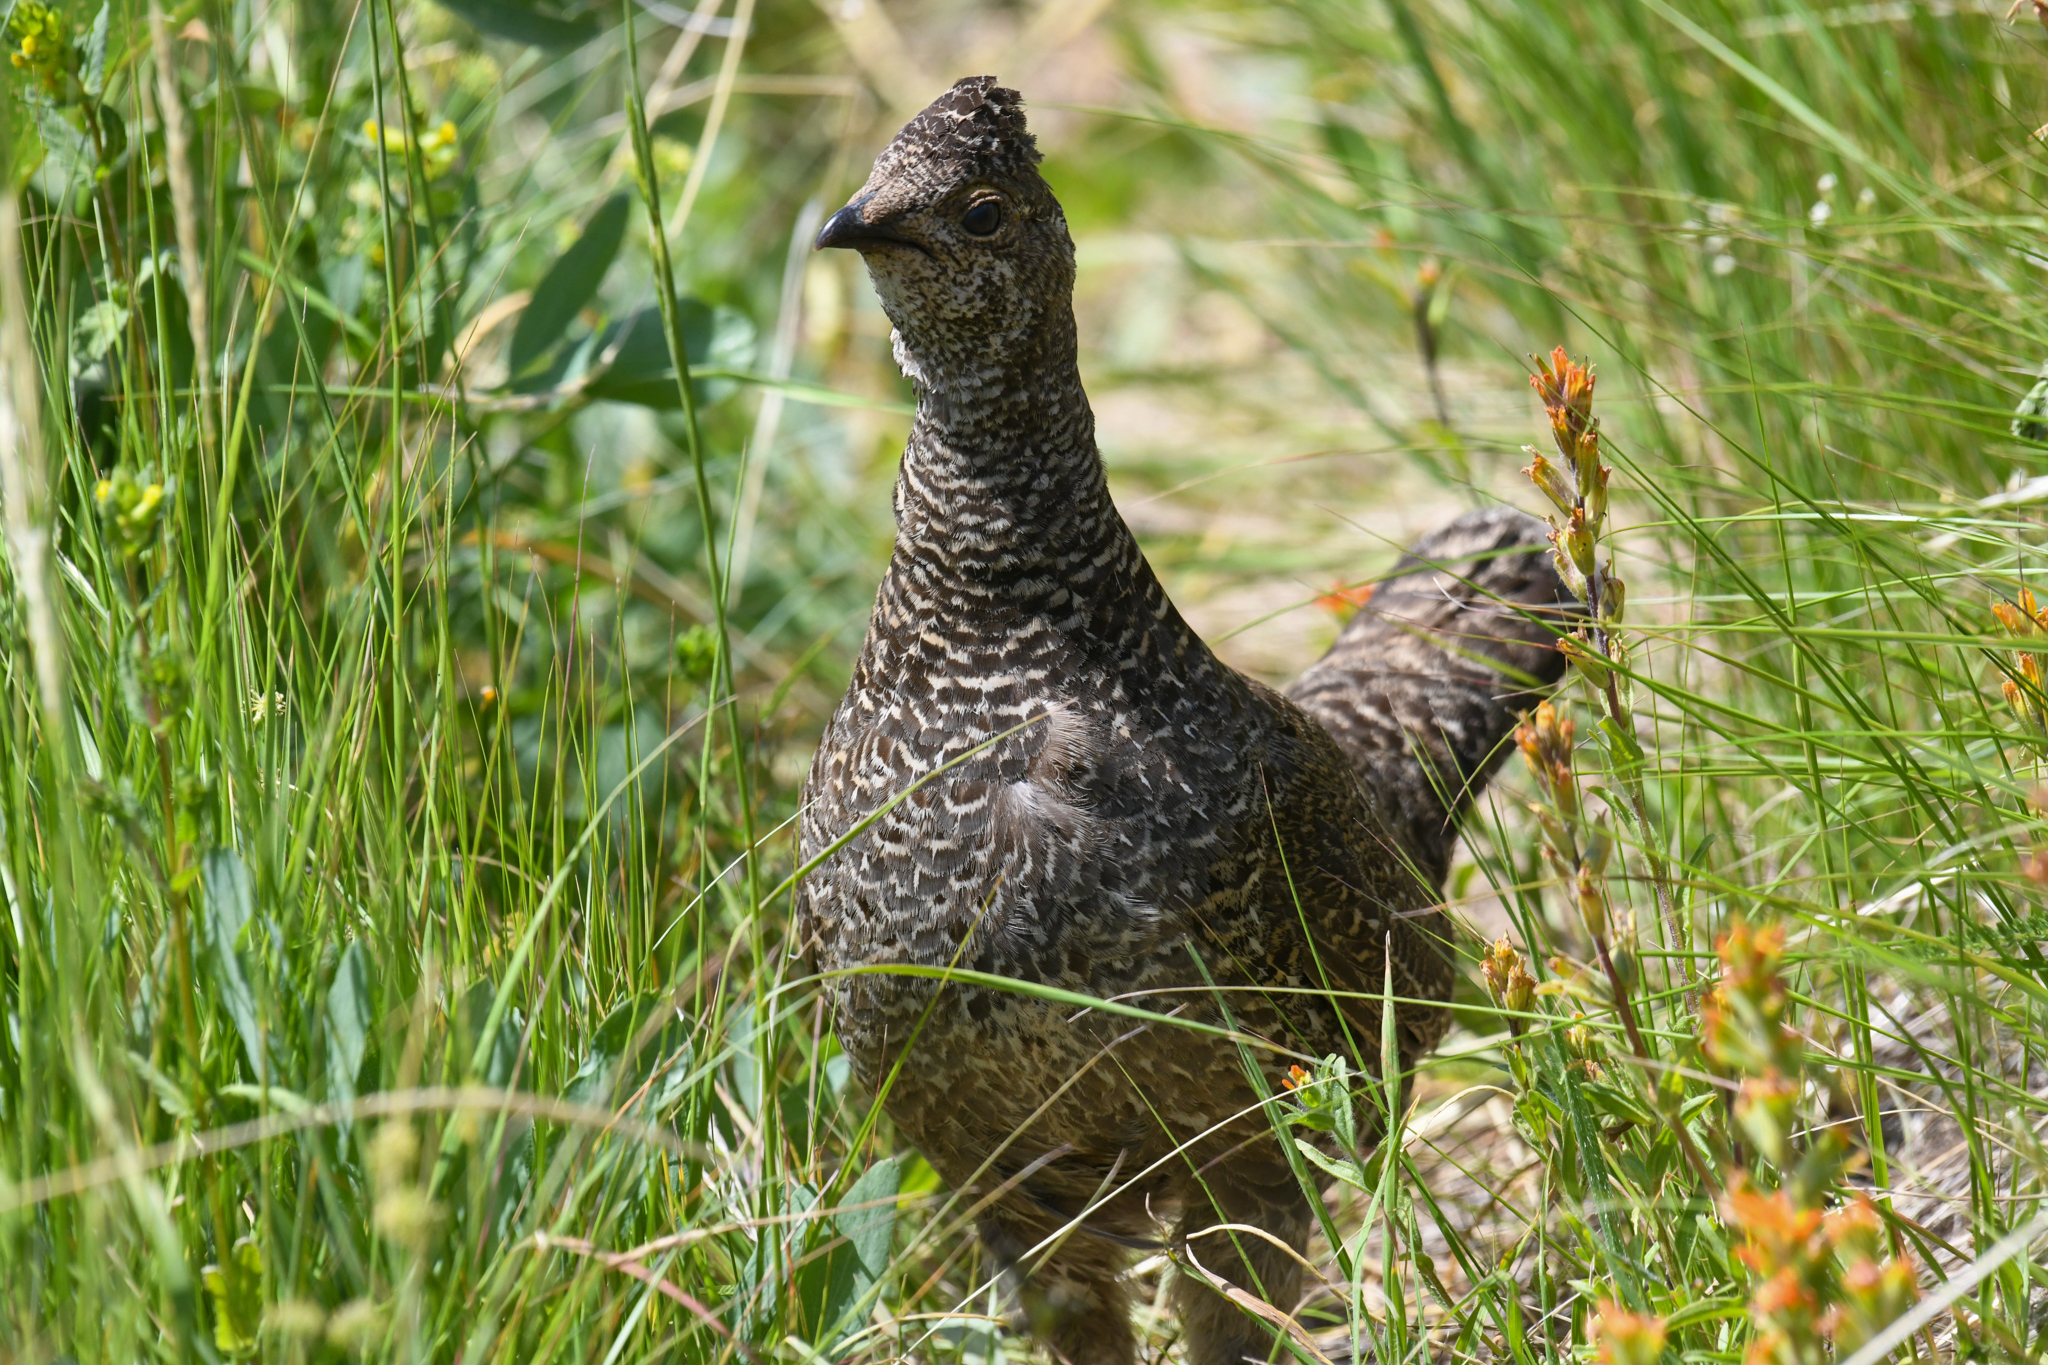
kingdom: Animalia
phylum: Chordata
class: Aves
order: Galliformes
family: Phasianidae
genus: Dendragapus
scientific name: Dendragapus obscurus
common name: Dusky grouse
